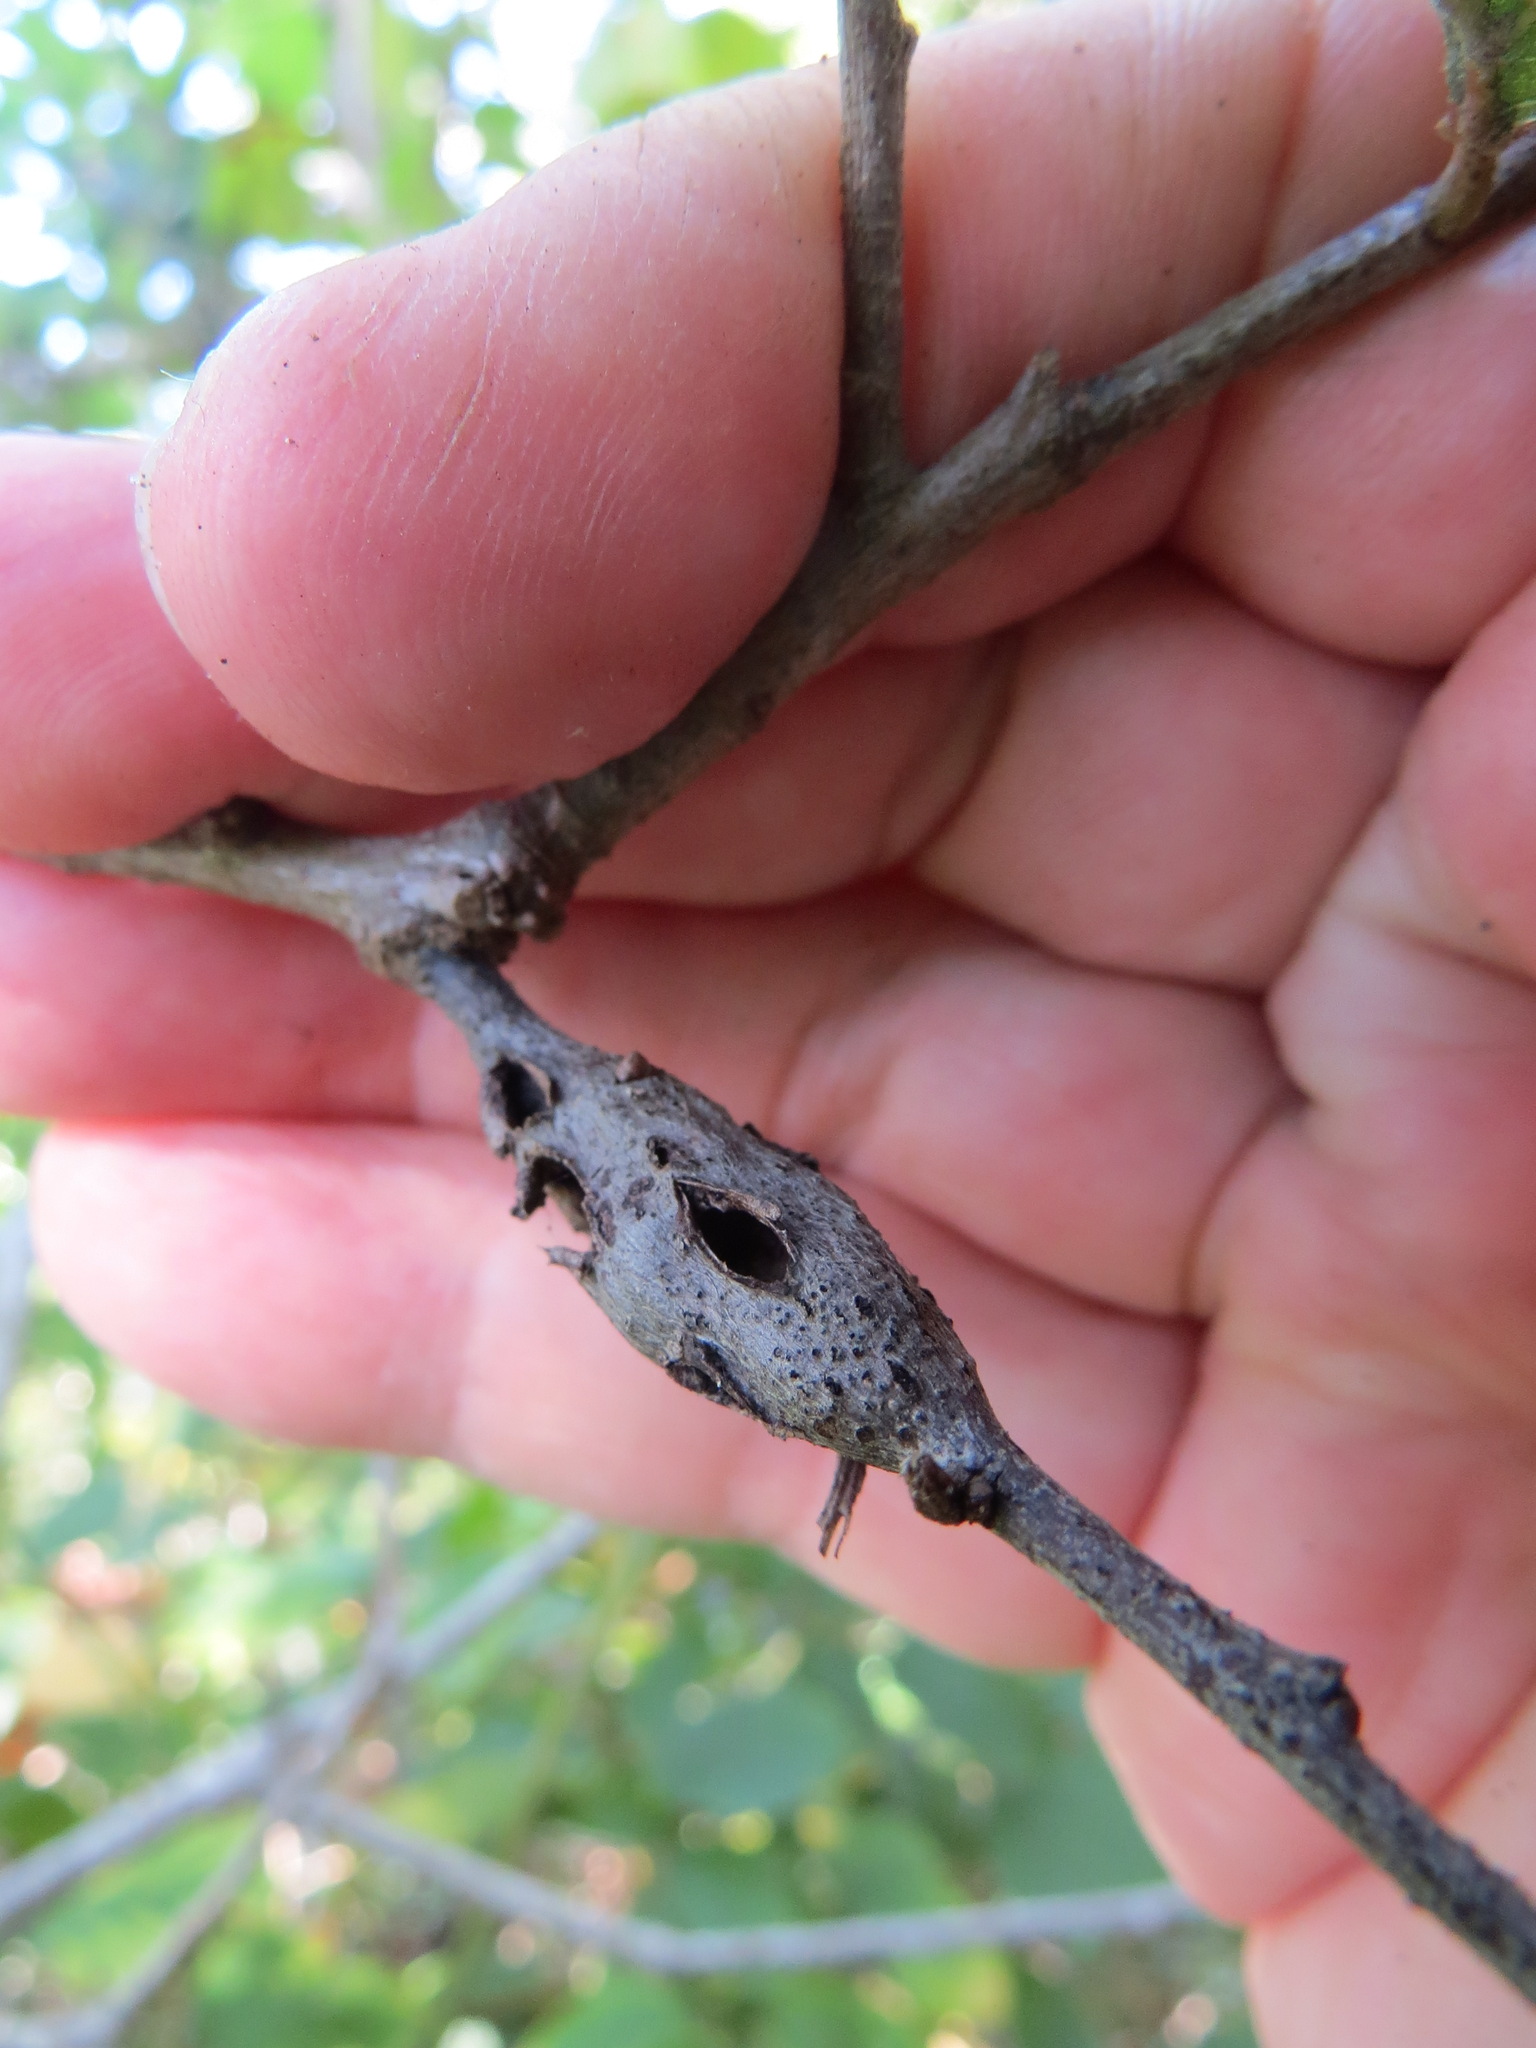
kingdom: Animalia
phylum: Arthropoda
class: Insecta
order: Hymenoptera
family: Cynipidae
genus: Callirhytis
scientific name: Callirhytis
